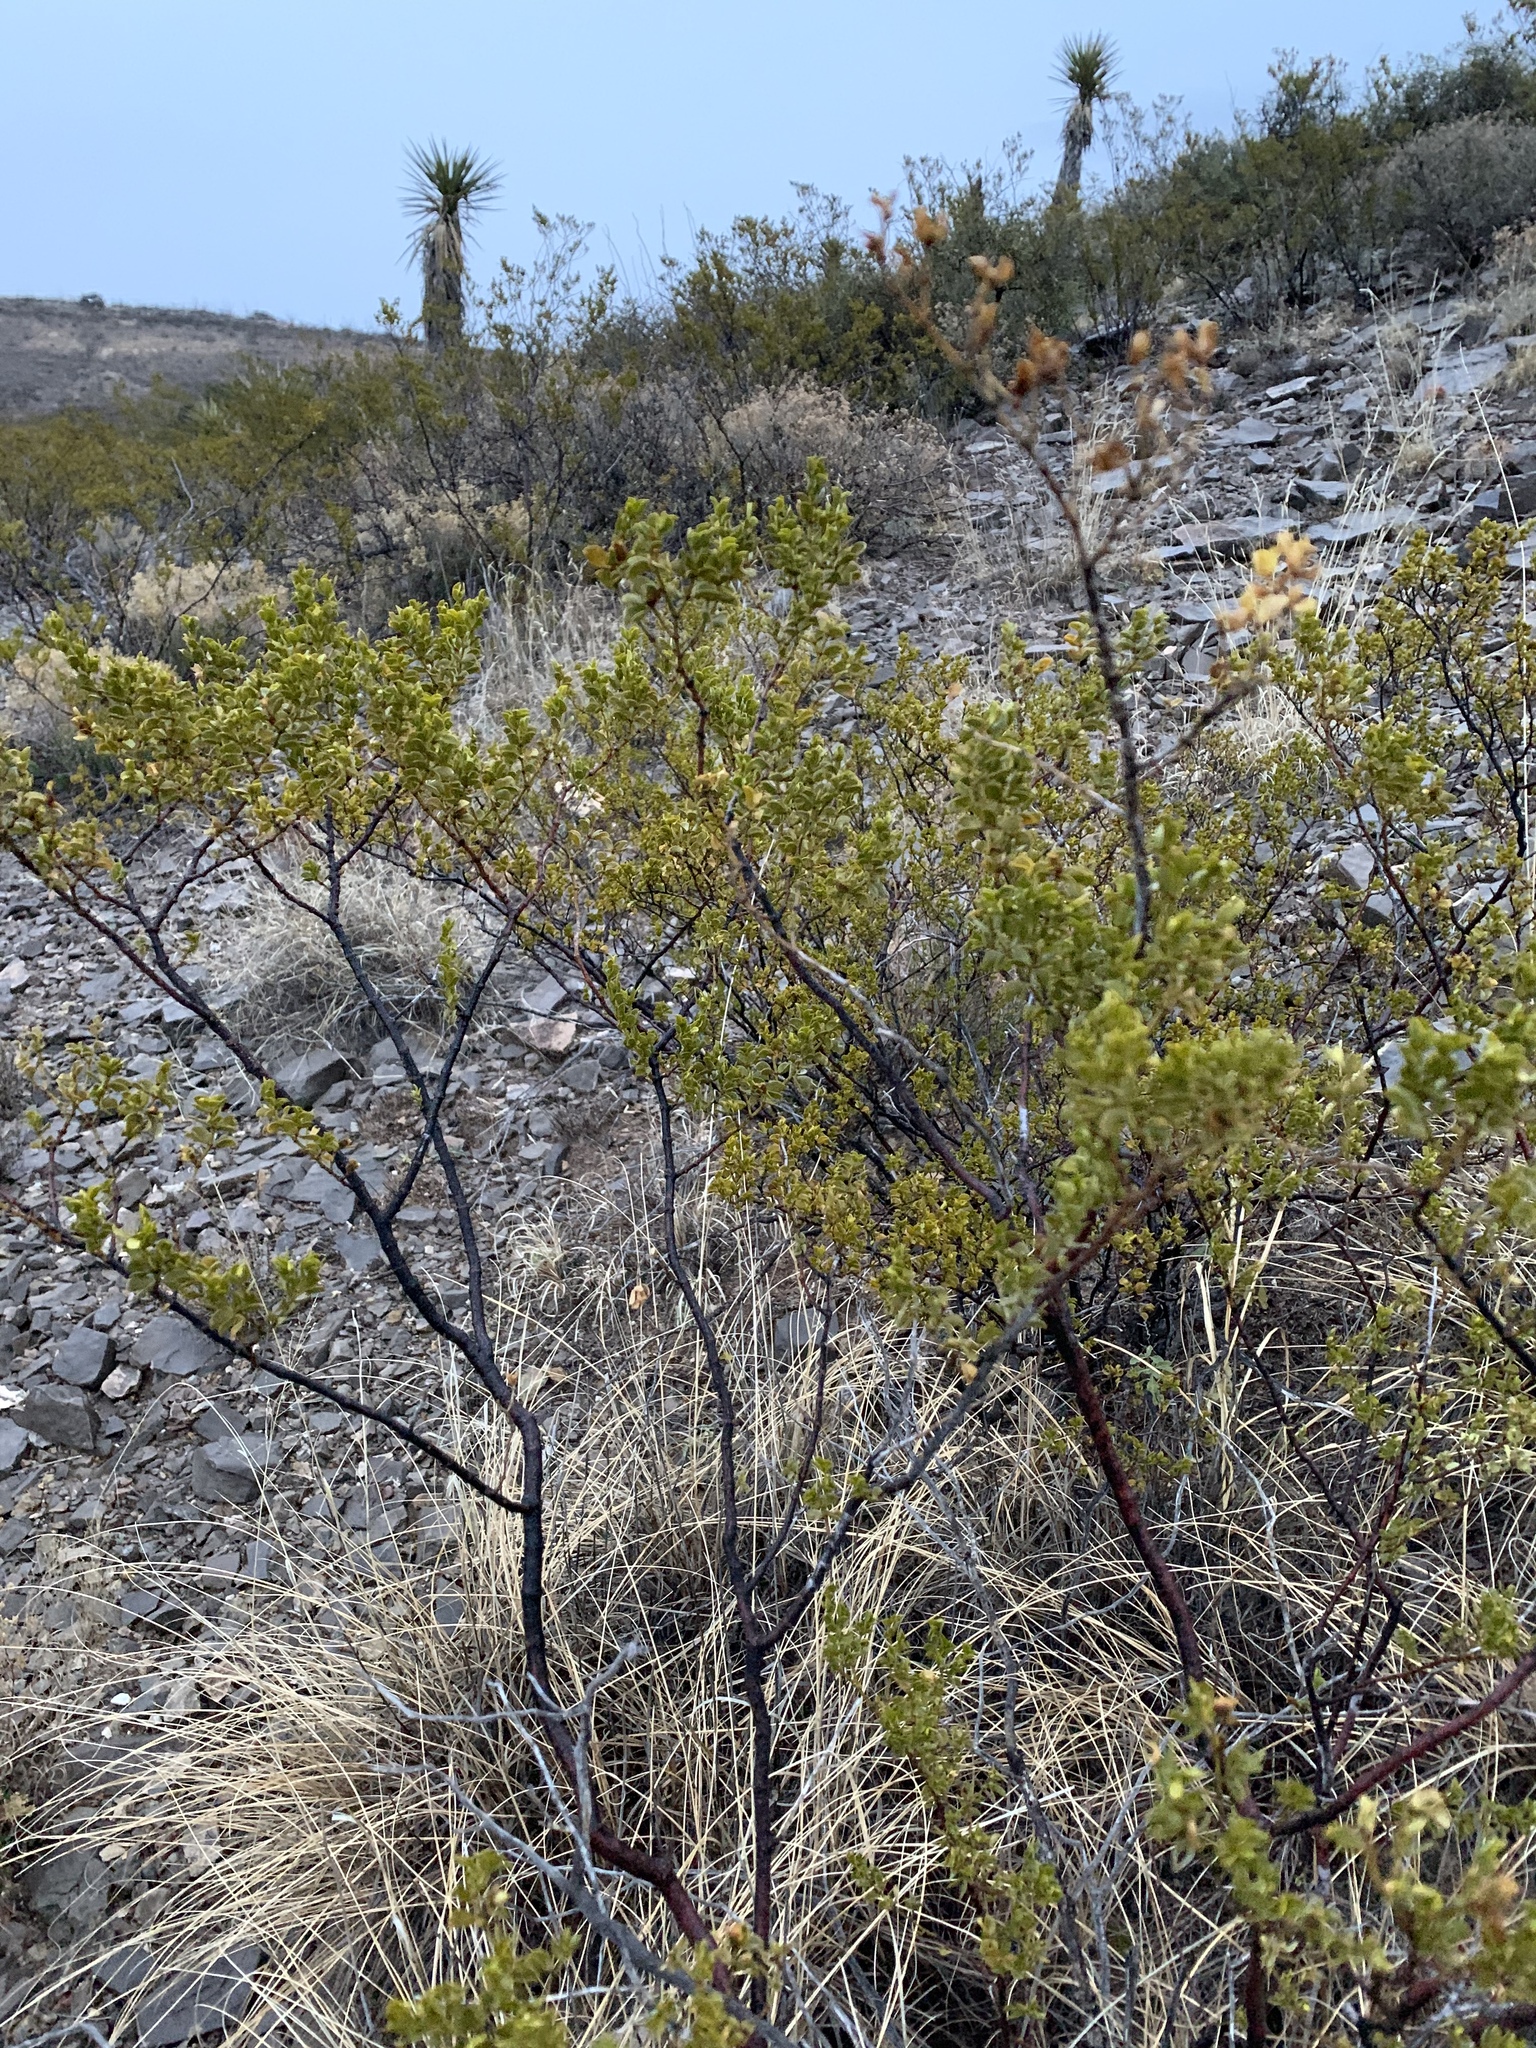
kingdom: Plantae
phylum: Tracheophyta
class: Magnoliopsida
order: Zygophyllales
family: Zygophyllaceae
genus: Larrea
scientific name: Larrea tridentata
